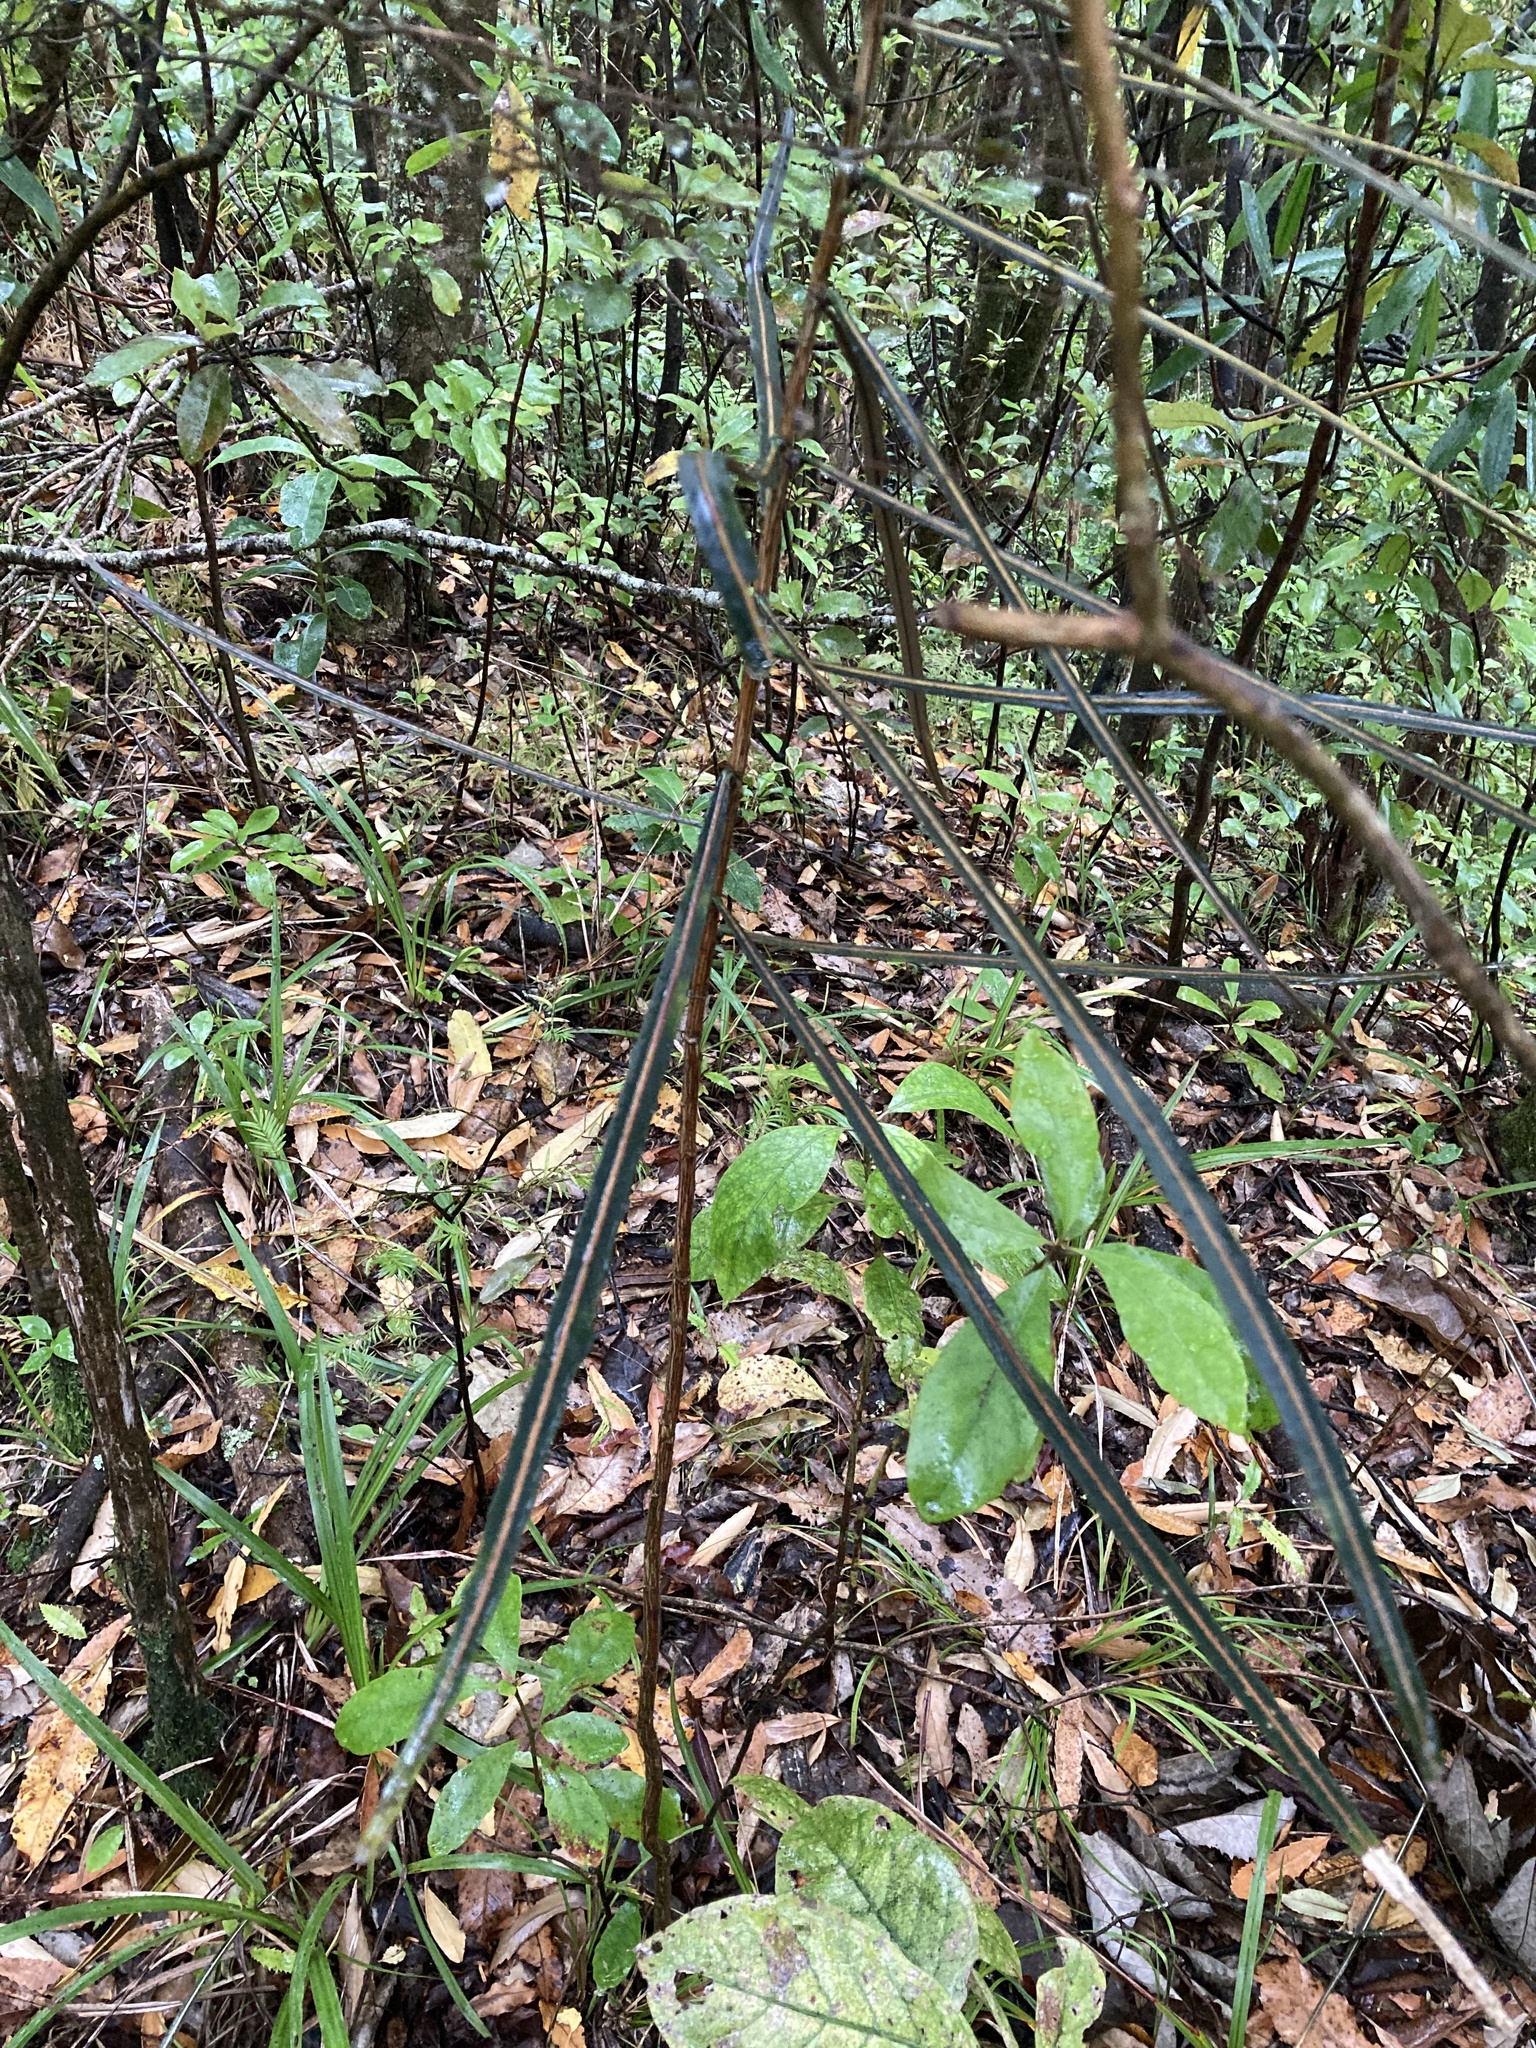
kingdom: Plantae
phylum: Tracheophyta
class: Magnoliopsida
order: Apiales
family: Araliaceae
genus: Pseudopanax
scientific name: Pseudopanax crassifolius
